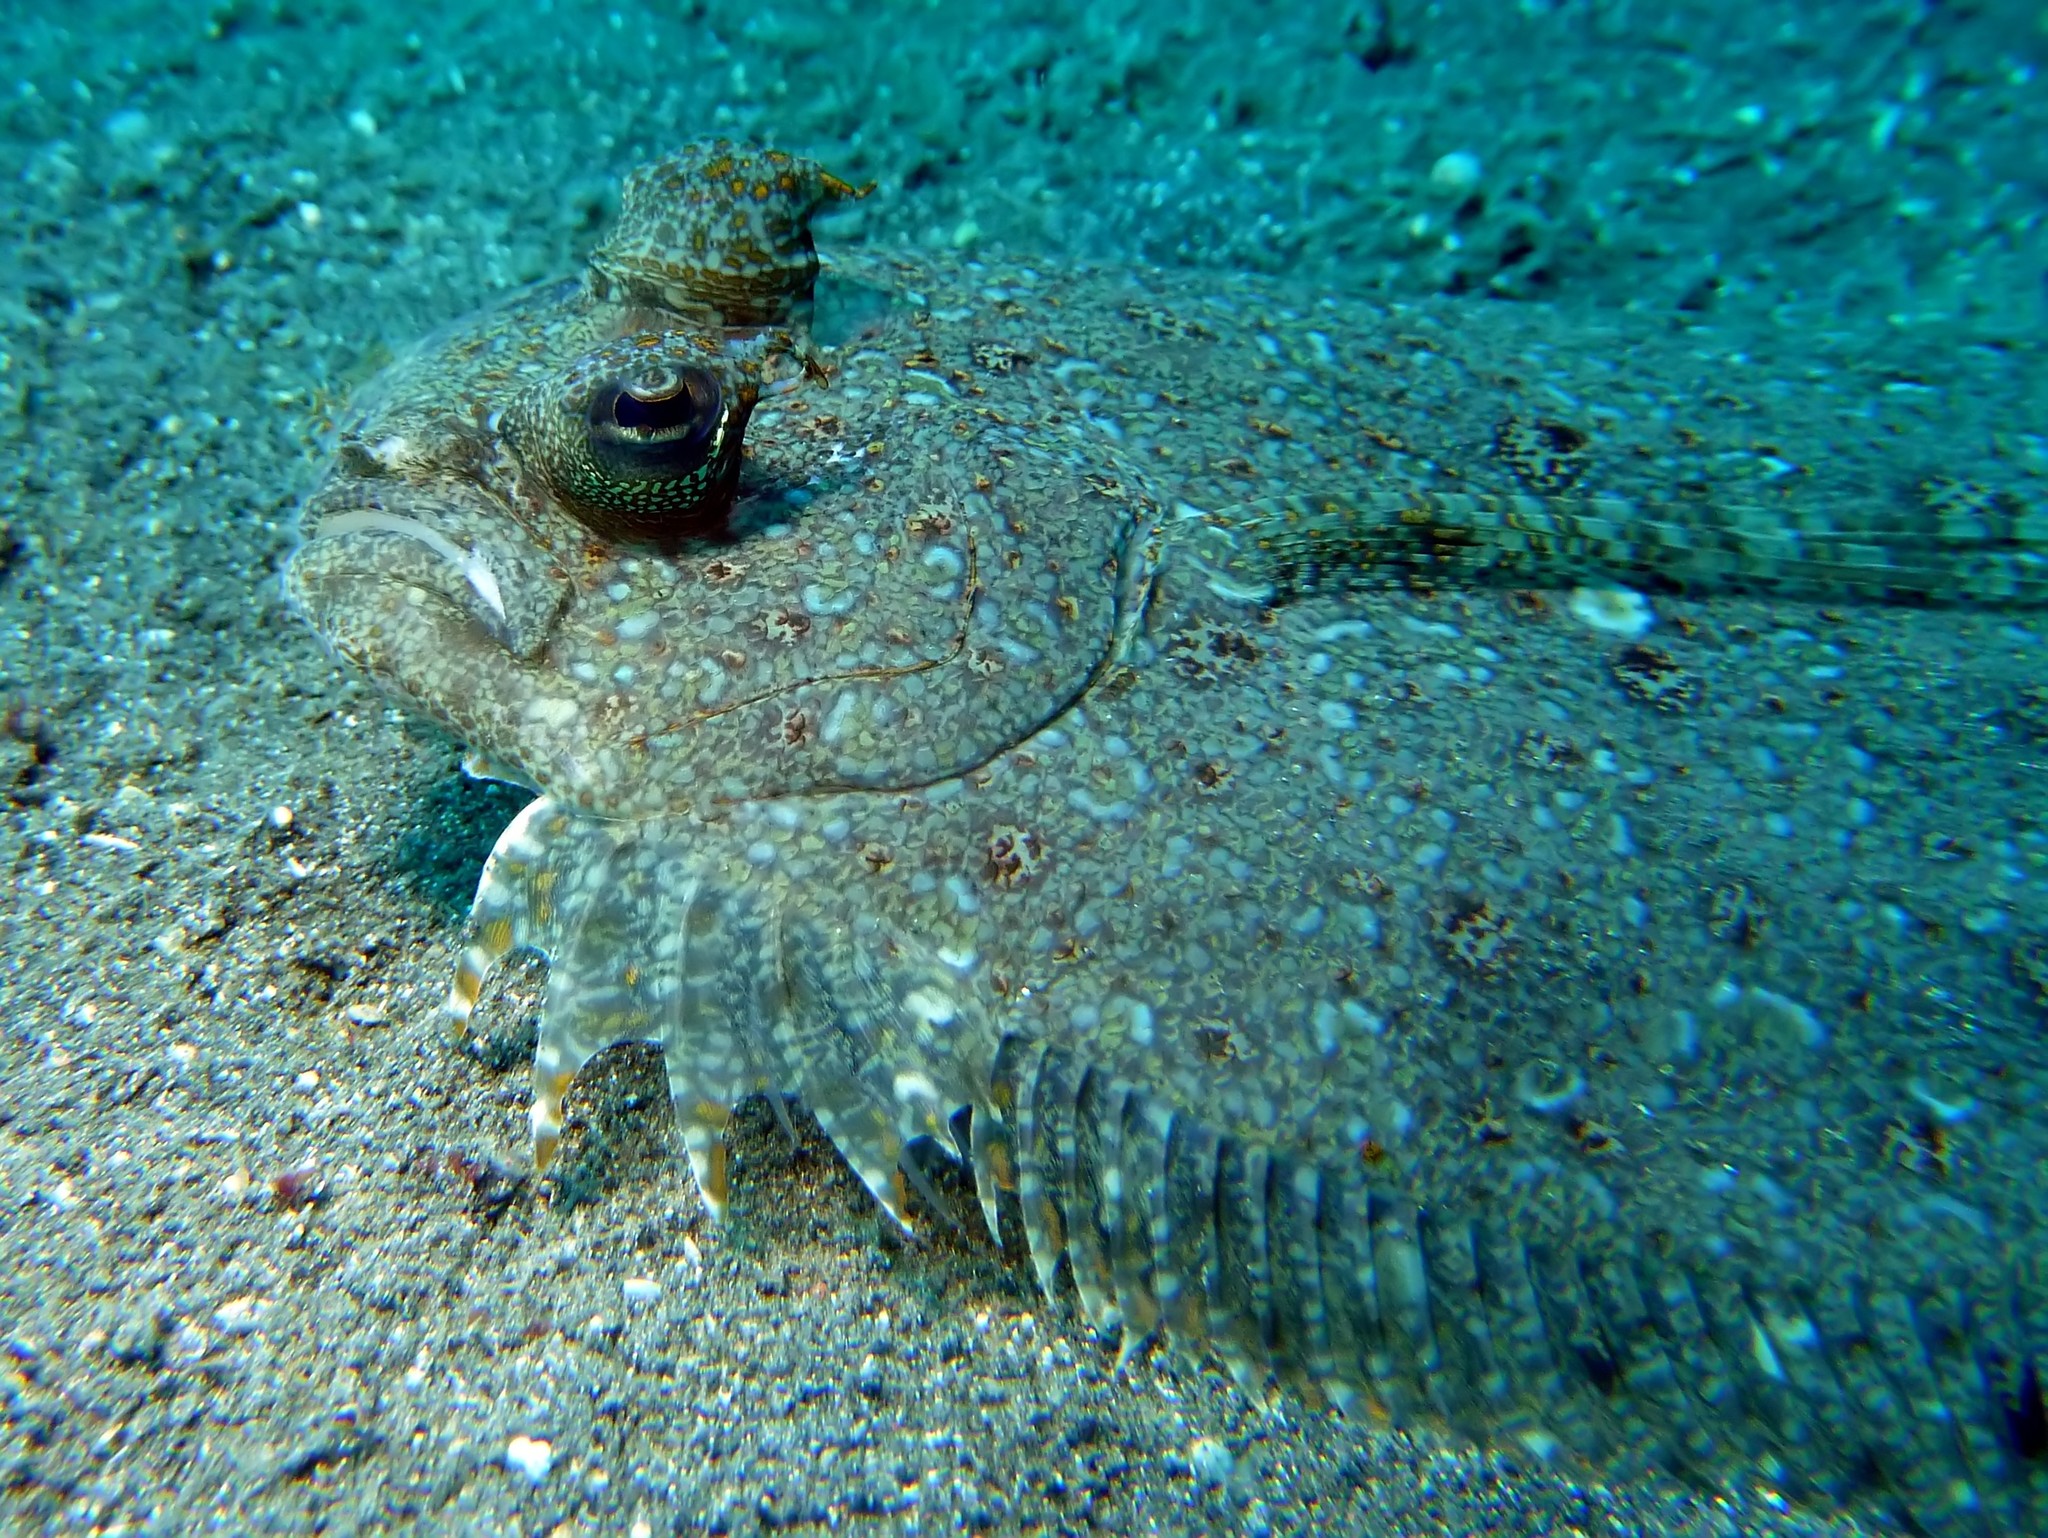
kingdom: Animalia
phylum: Chordata
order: Pleuronectiformes
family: Bothidae
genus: Bothus
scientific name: Bothus pantherinus
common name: Leopard flounder
